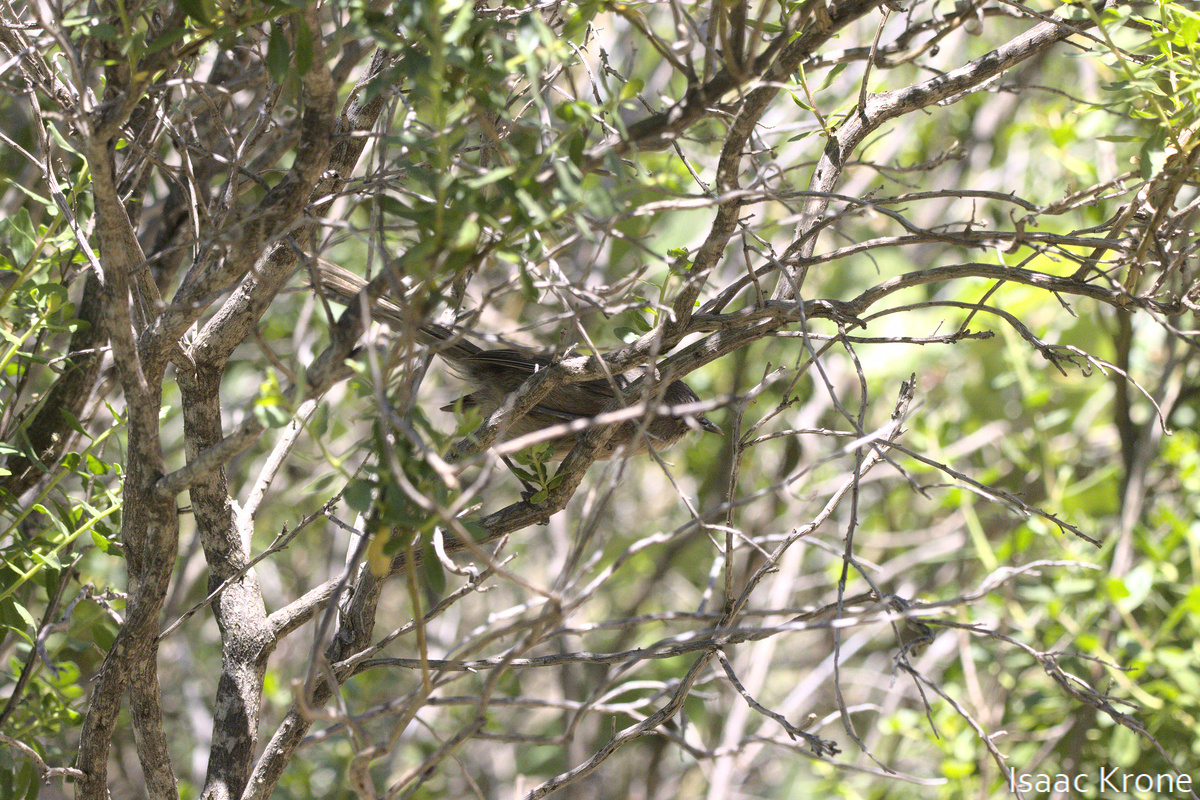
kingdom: Animalia
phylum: Chordata
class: Aves
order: Passeriformes
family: Sylviidae
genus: Chamaea
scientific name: Chamaea fasciata
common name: Wrentit
